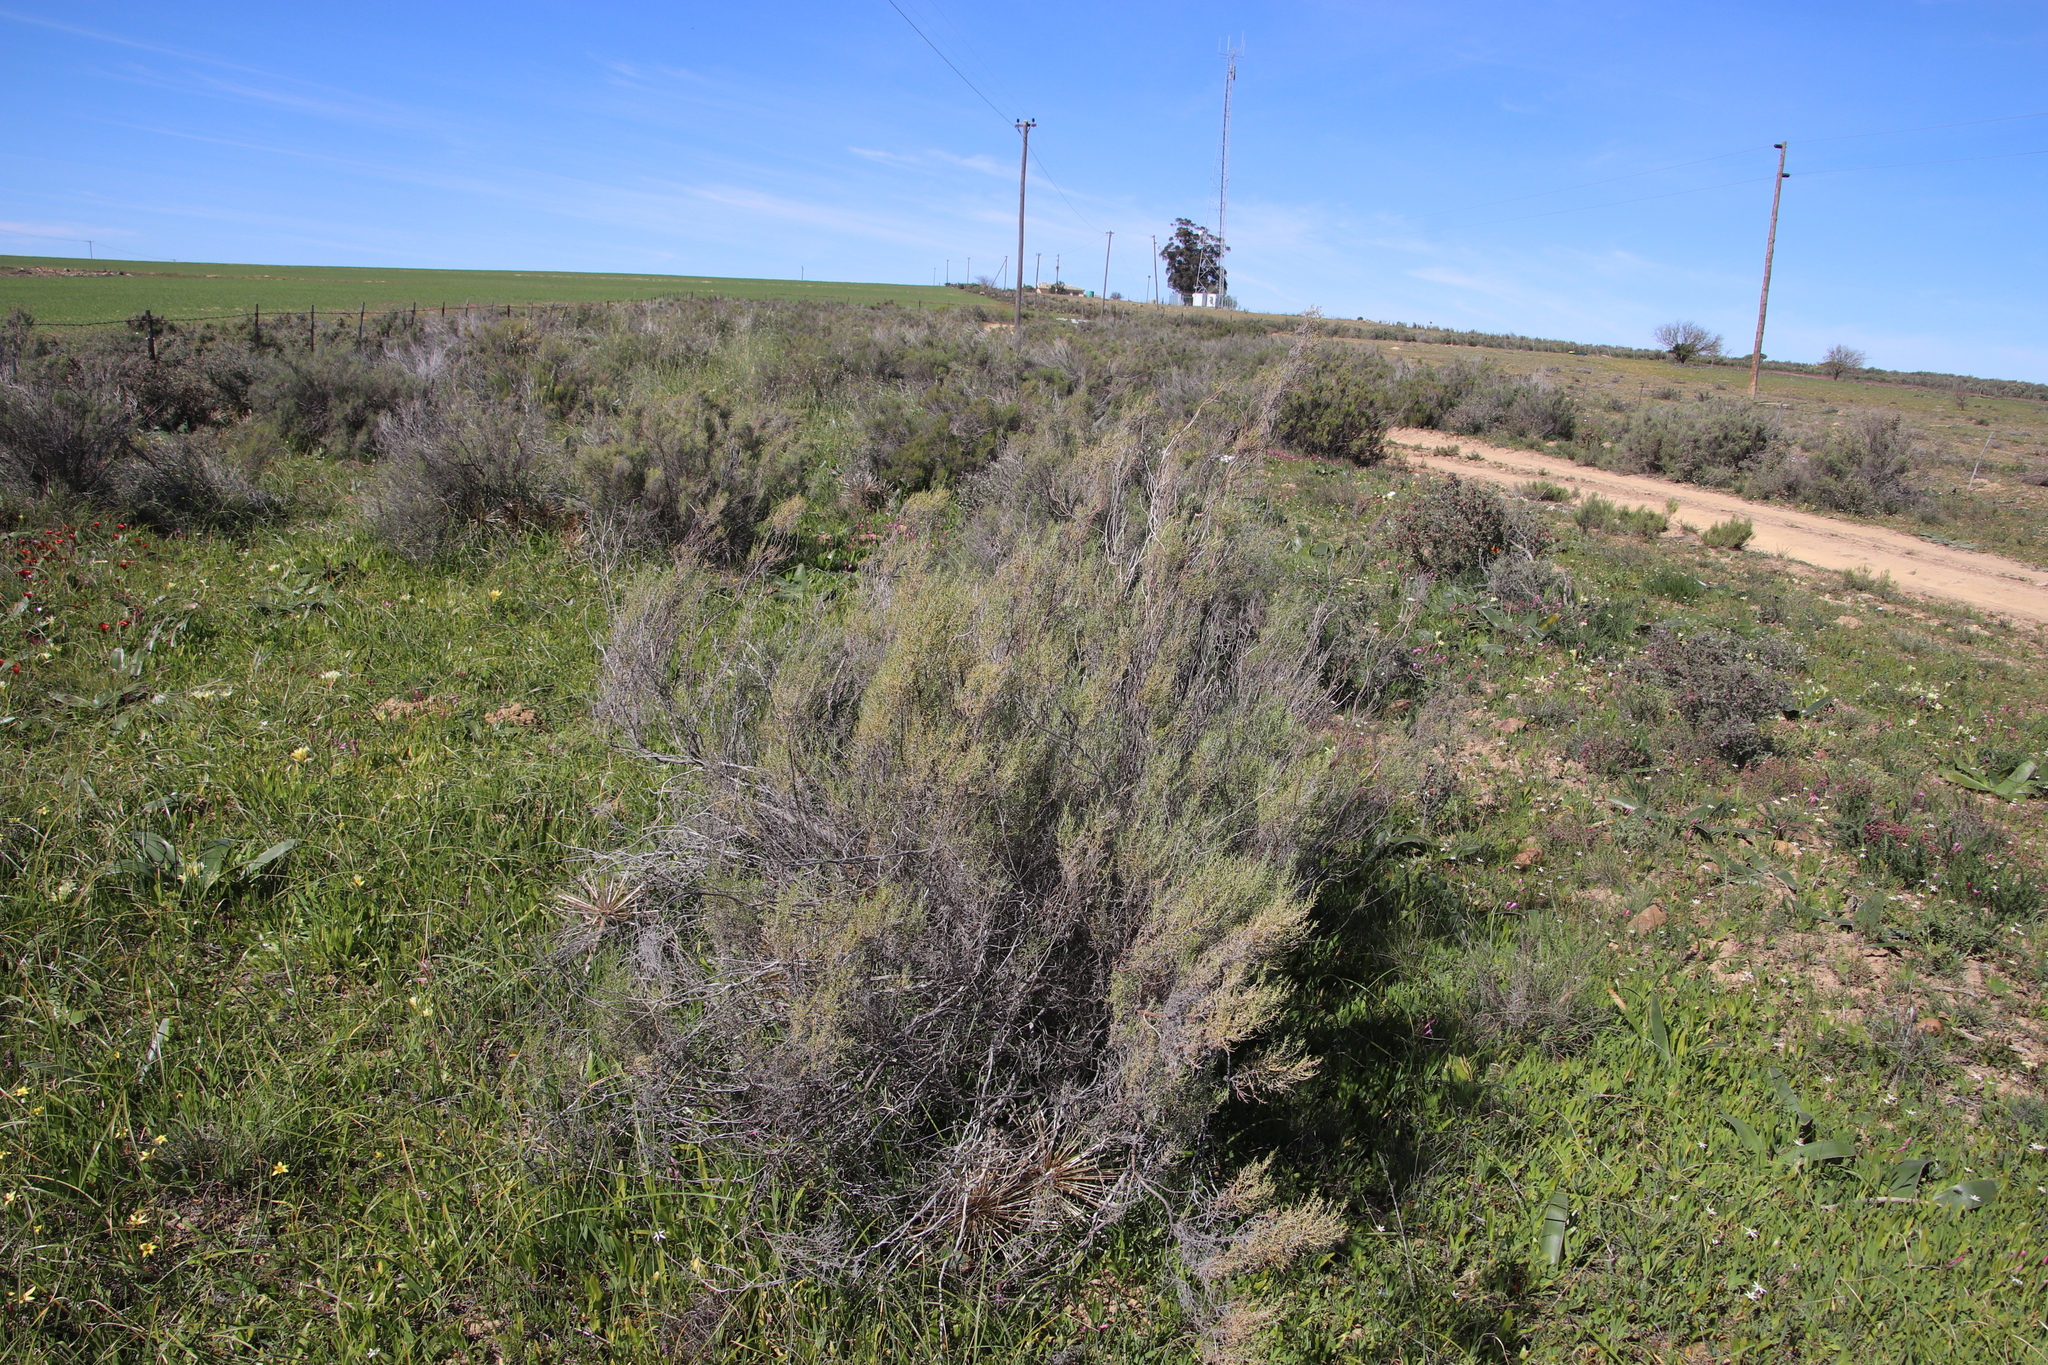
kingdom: Plantae
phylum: Tracheophyta
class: Magnoliopsida
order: Asterales
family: Asteraceae
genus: Dicerothamnus
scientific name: Dicerothamnus rhinocerotis
